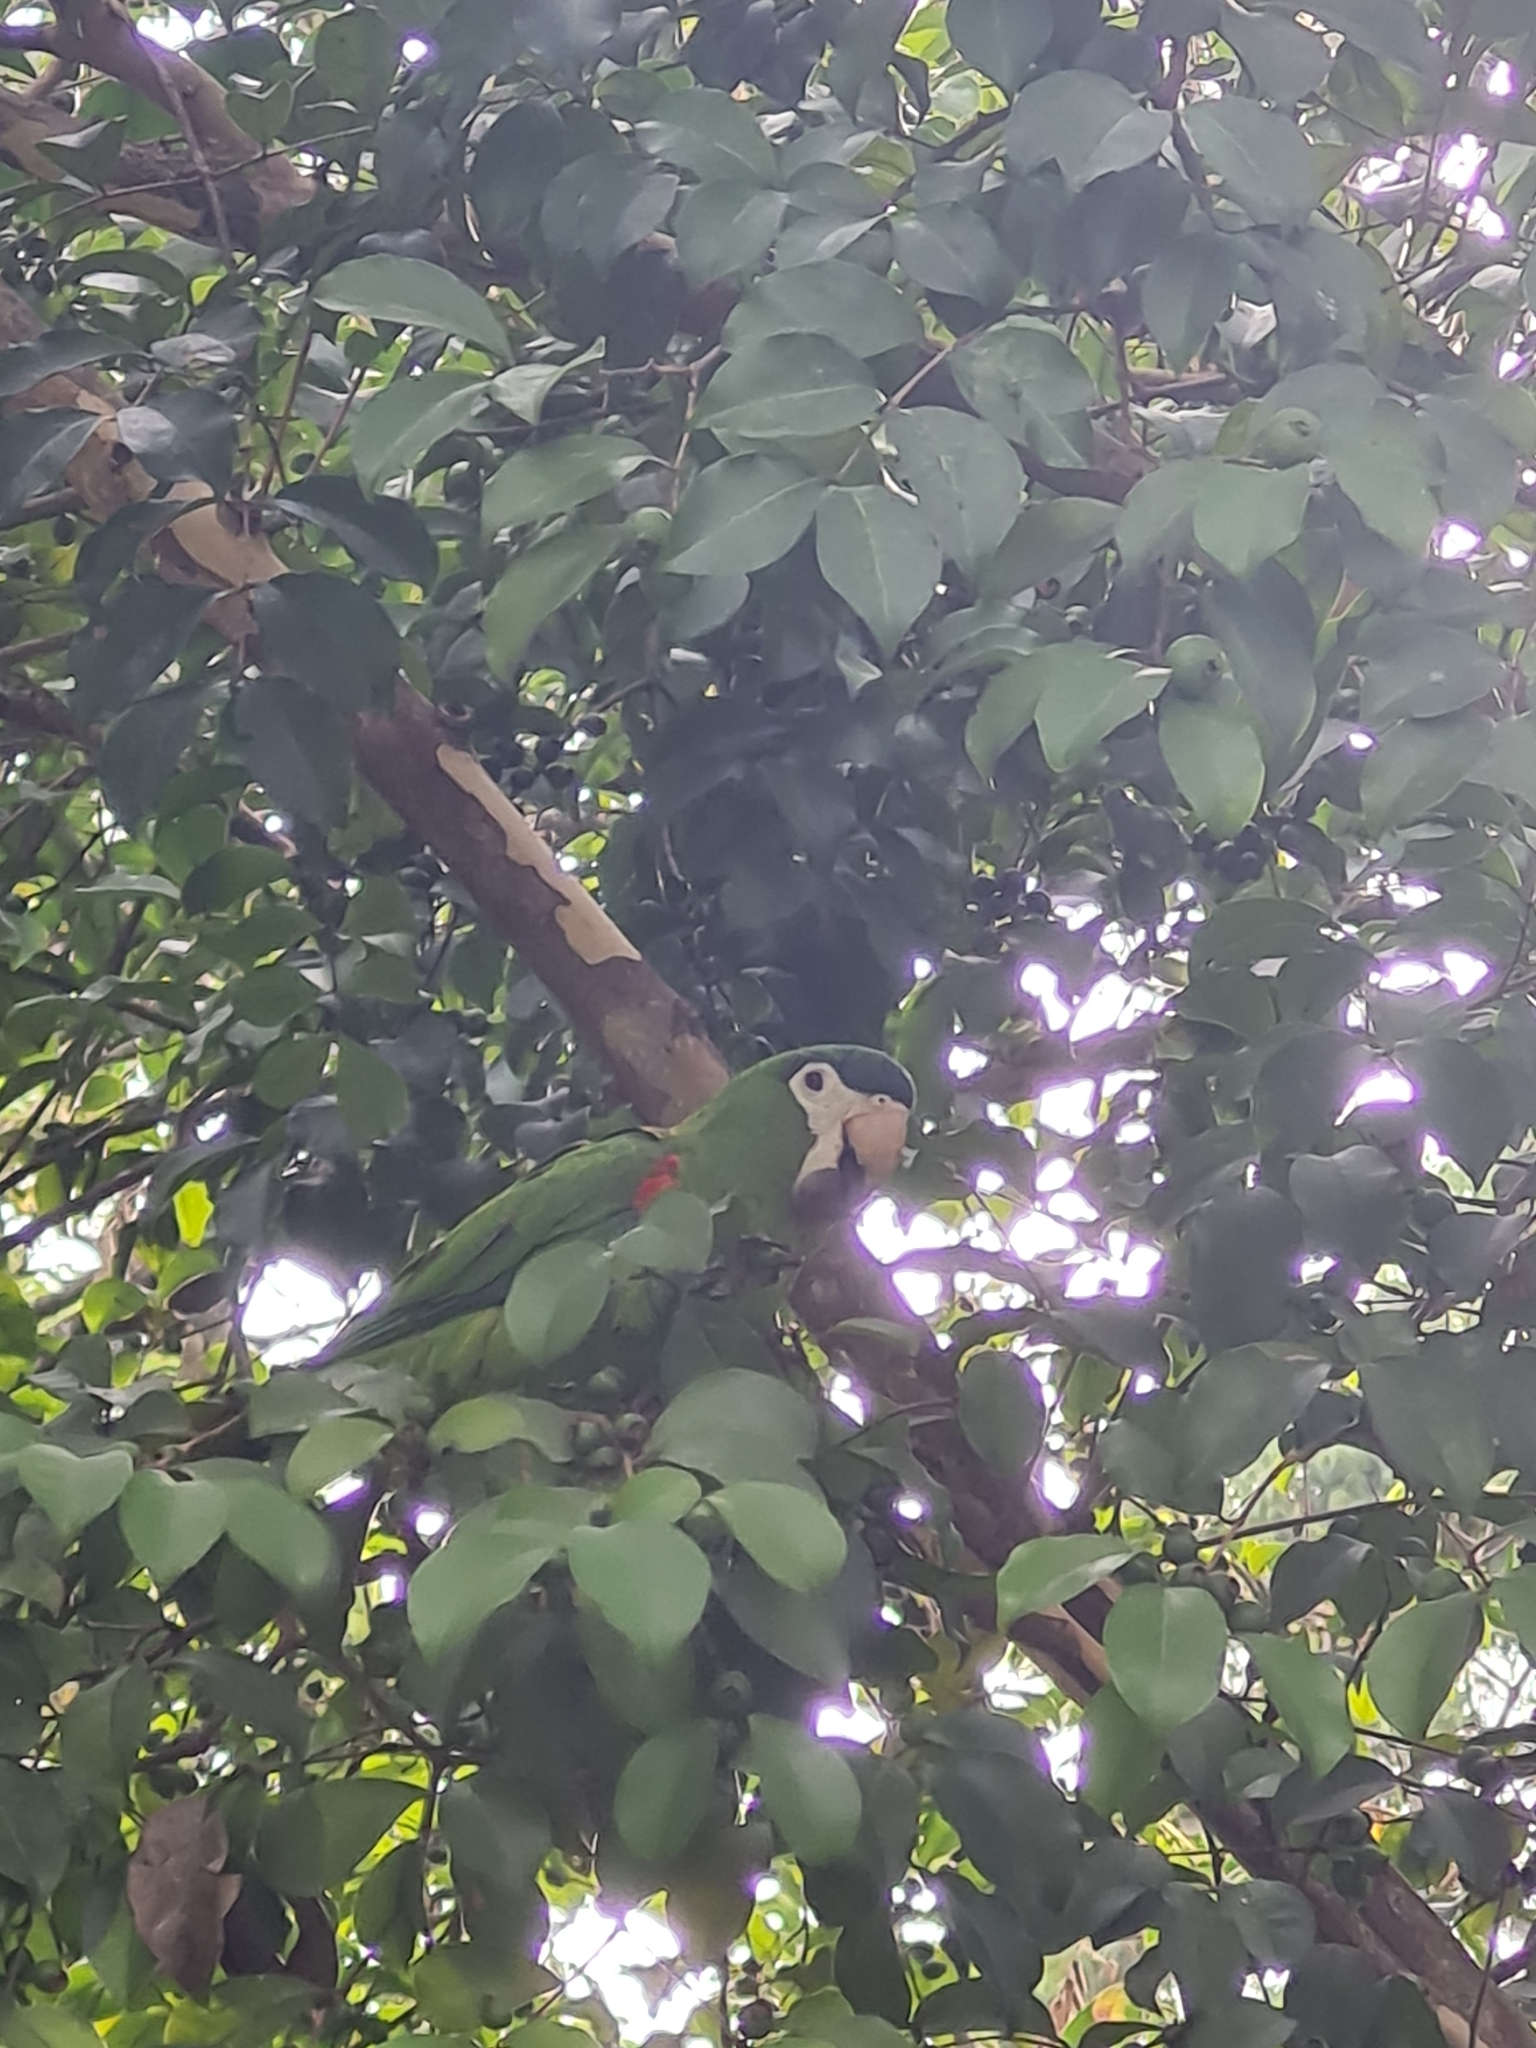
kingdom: Animalia
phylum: Chordata
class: Aves
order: Psittaciformes
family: Psittacidae
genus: Diopsittaca
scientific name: Diopsittaca nobilis
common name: Red-shouldered macaw
